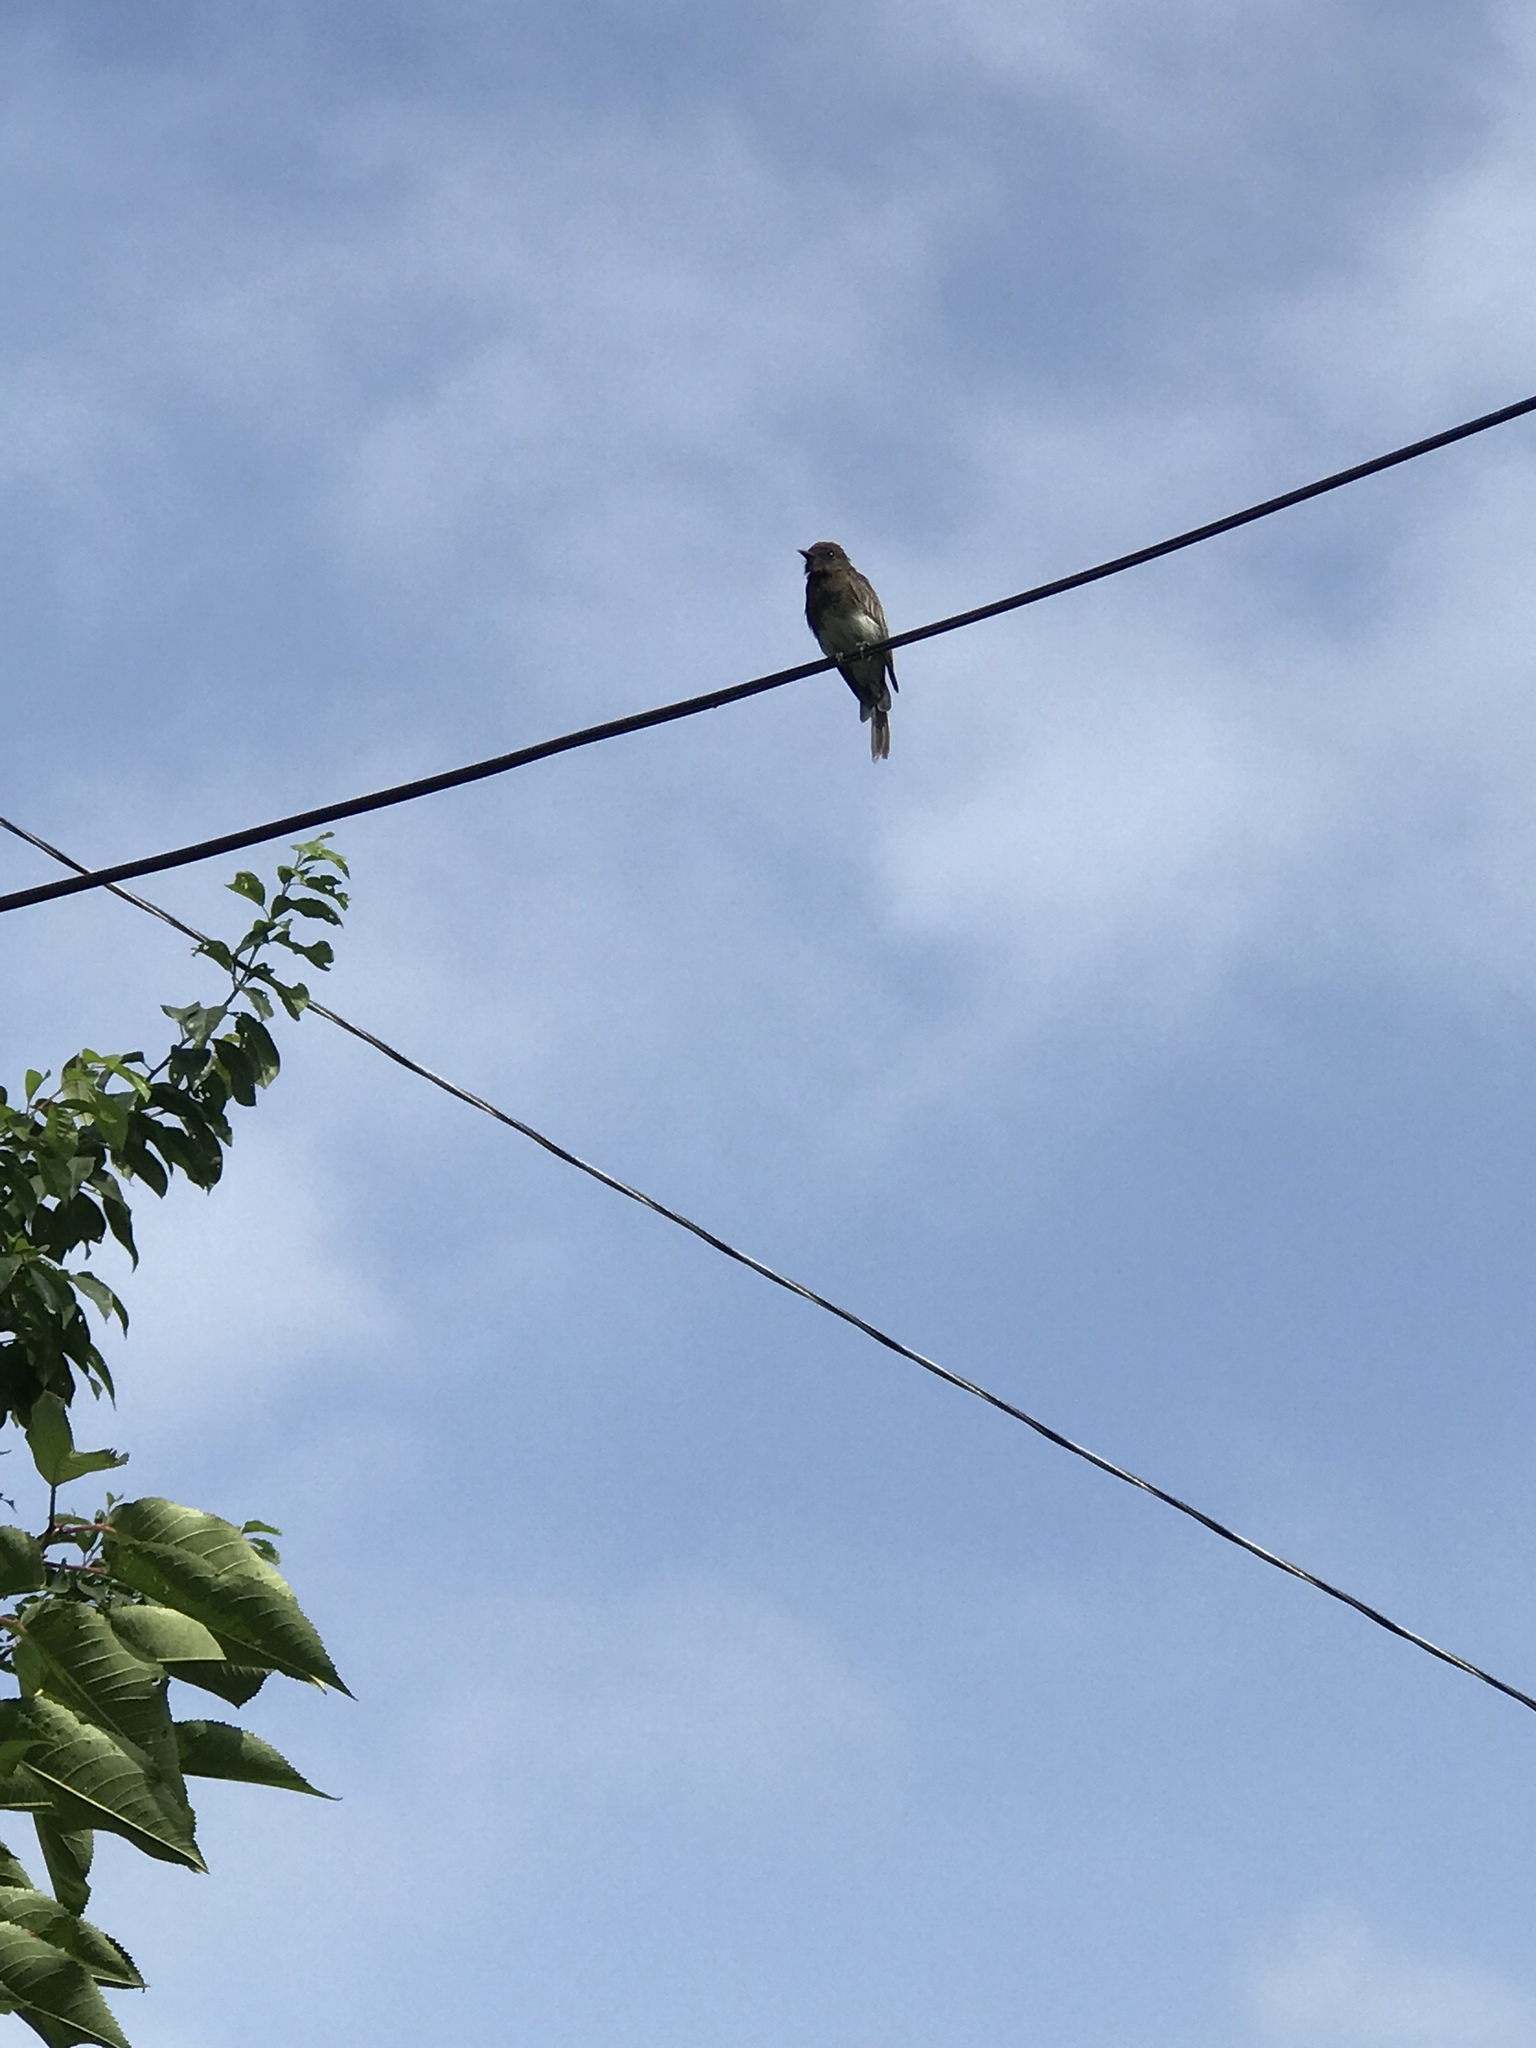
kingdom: Animalia
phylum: Chordata
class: Aves
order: Passeriformes
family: Tyrannidae
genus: Sayornis
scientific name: Sayornis nigricans
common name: Black phoebe
